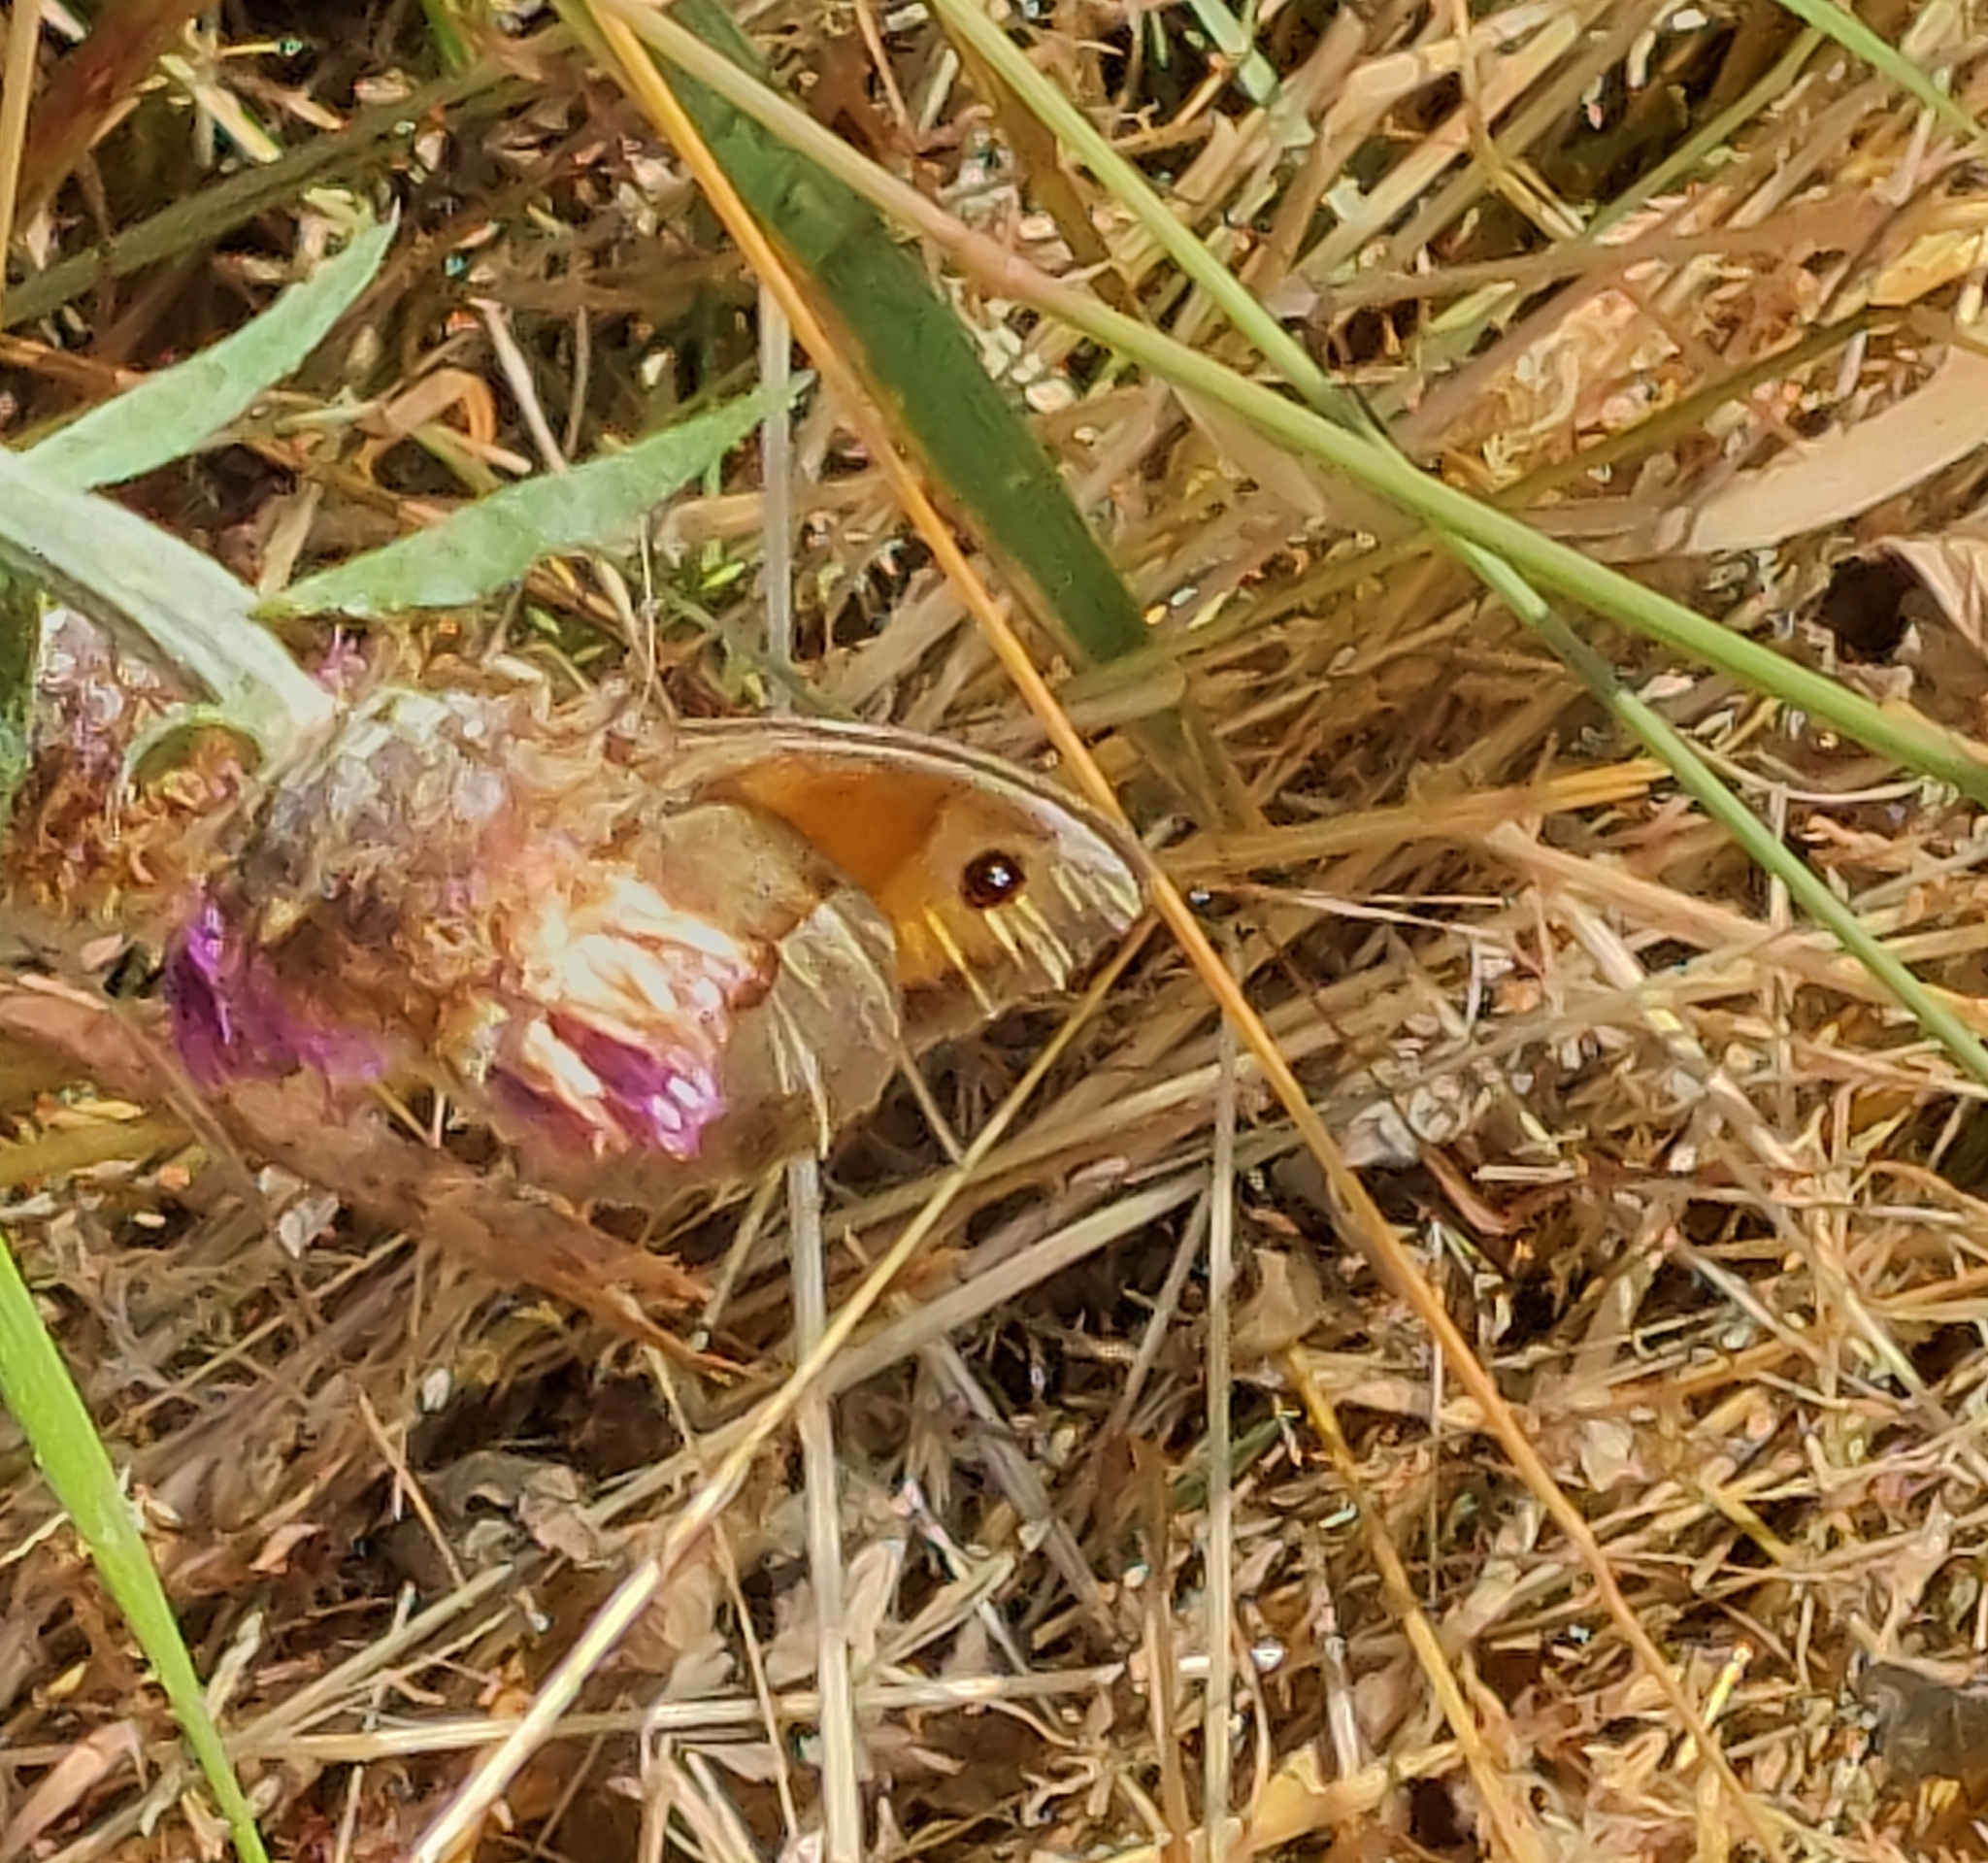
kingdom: Animalia
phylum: Arthropoda
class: Insecta
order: Lepidoptera
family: Nymphalidae
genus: Maniola
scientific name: Maniola jurtina
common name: Meadow brown
